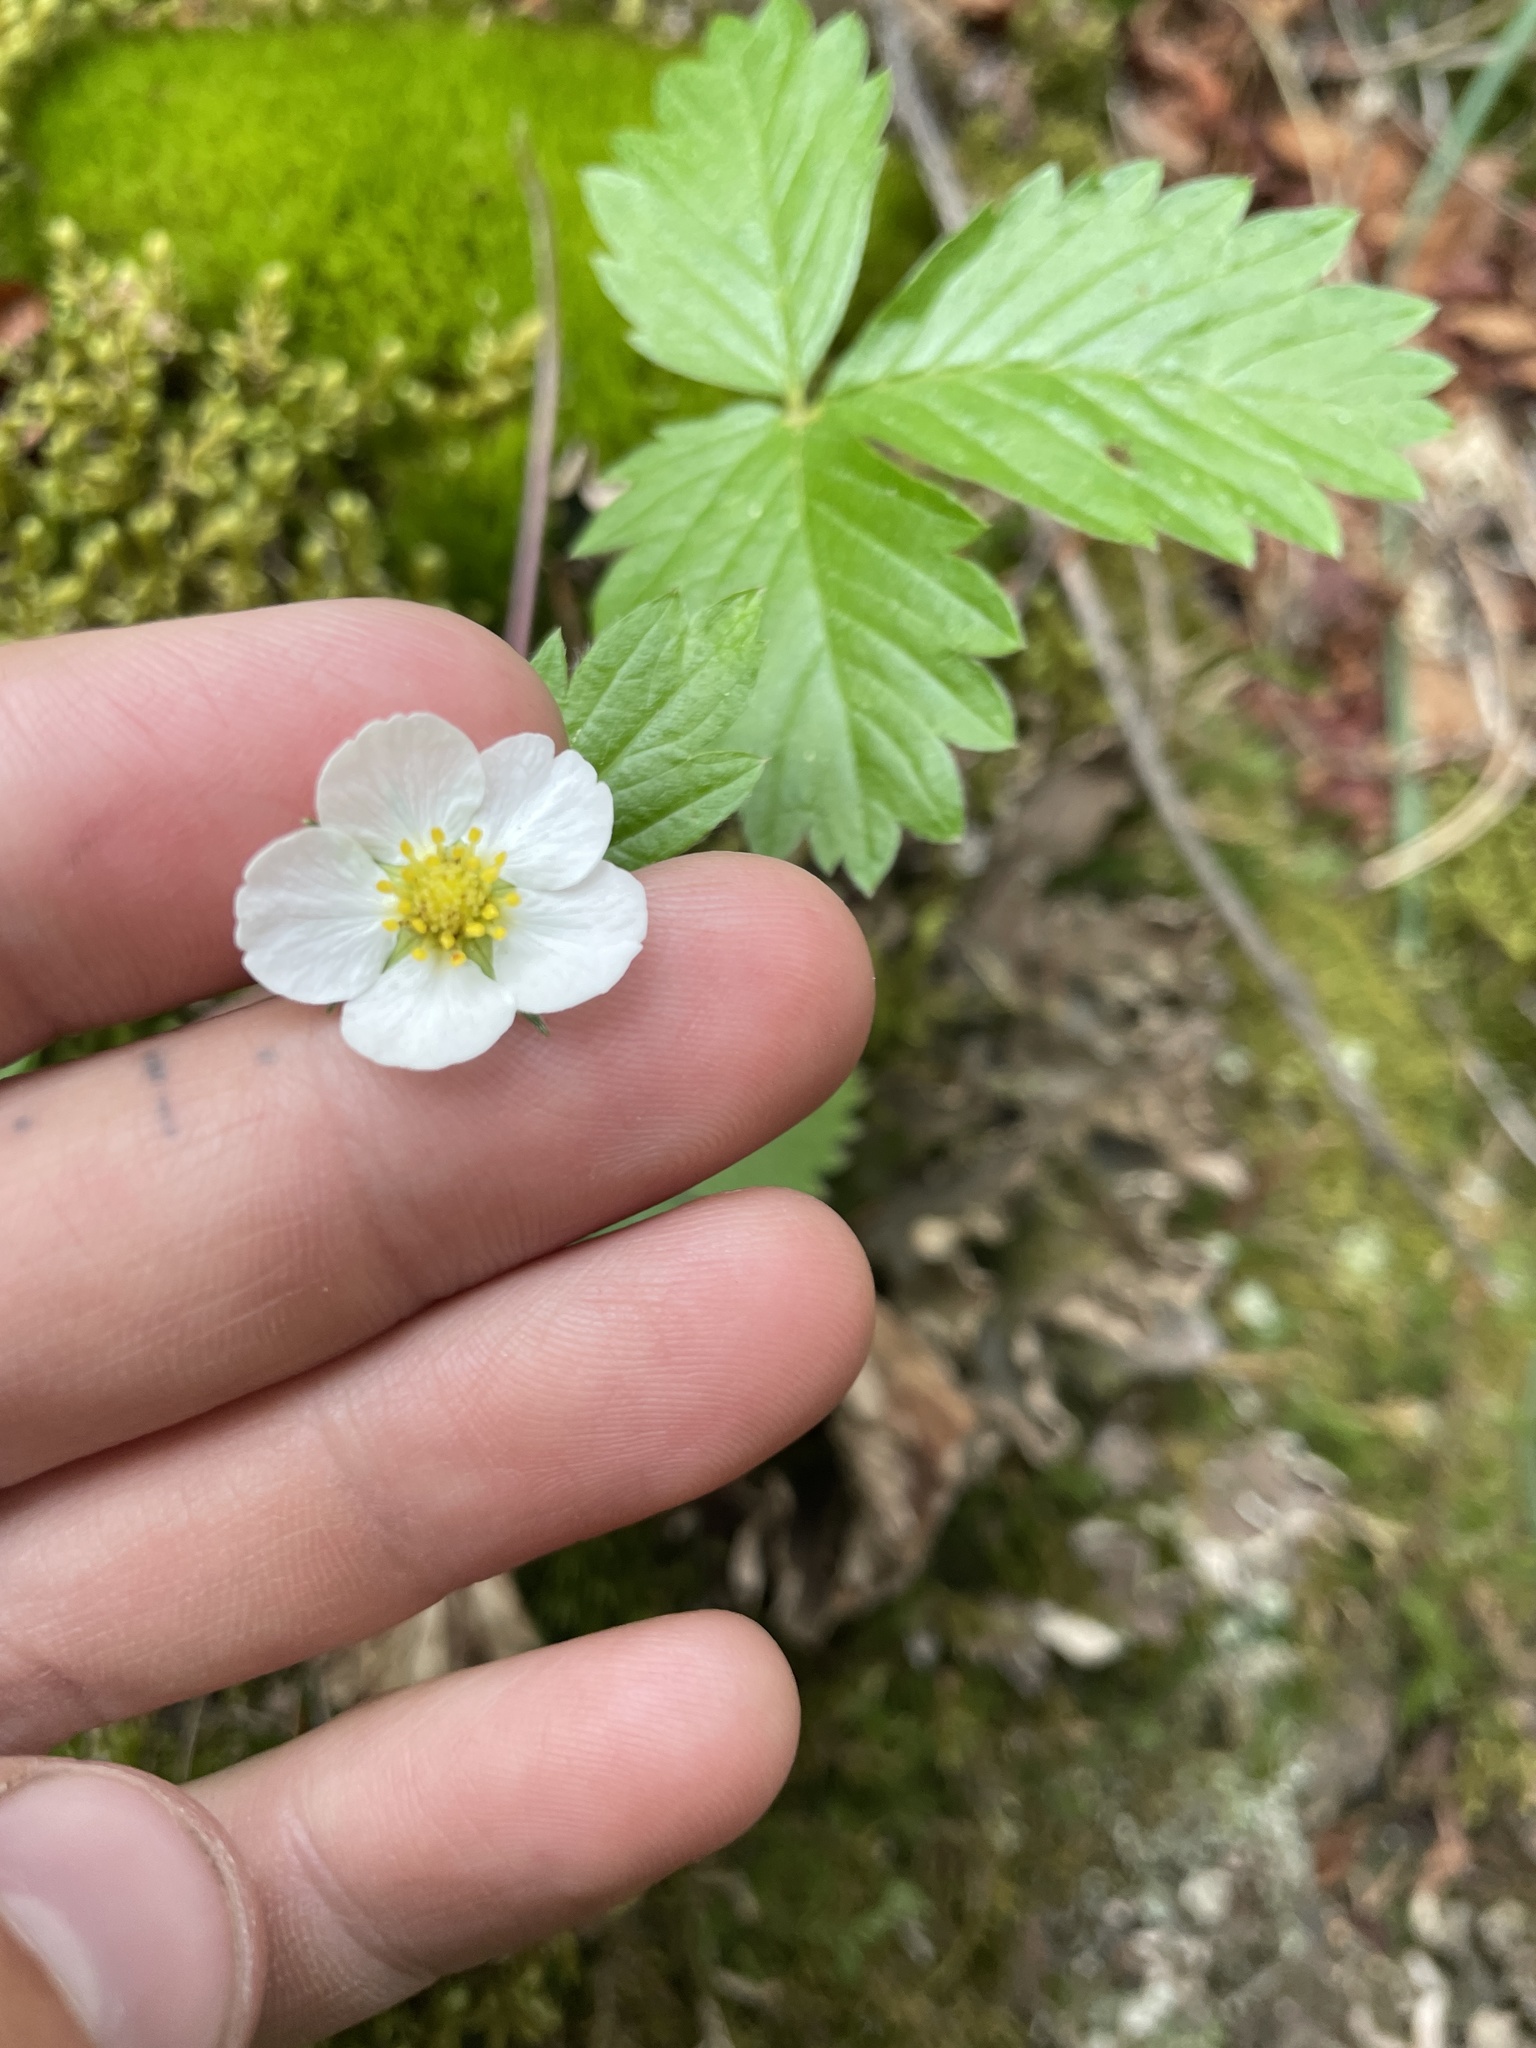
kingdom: Plantae
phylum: Tracheophyta
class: Magnoliopsida
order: Rosales
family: Rosaceae
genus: Fragaria
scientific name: Fragaria vesca
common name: Wild strawberry
